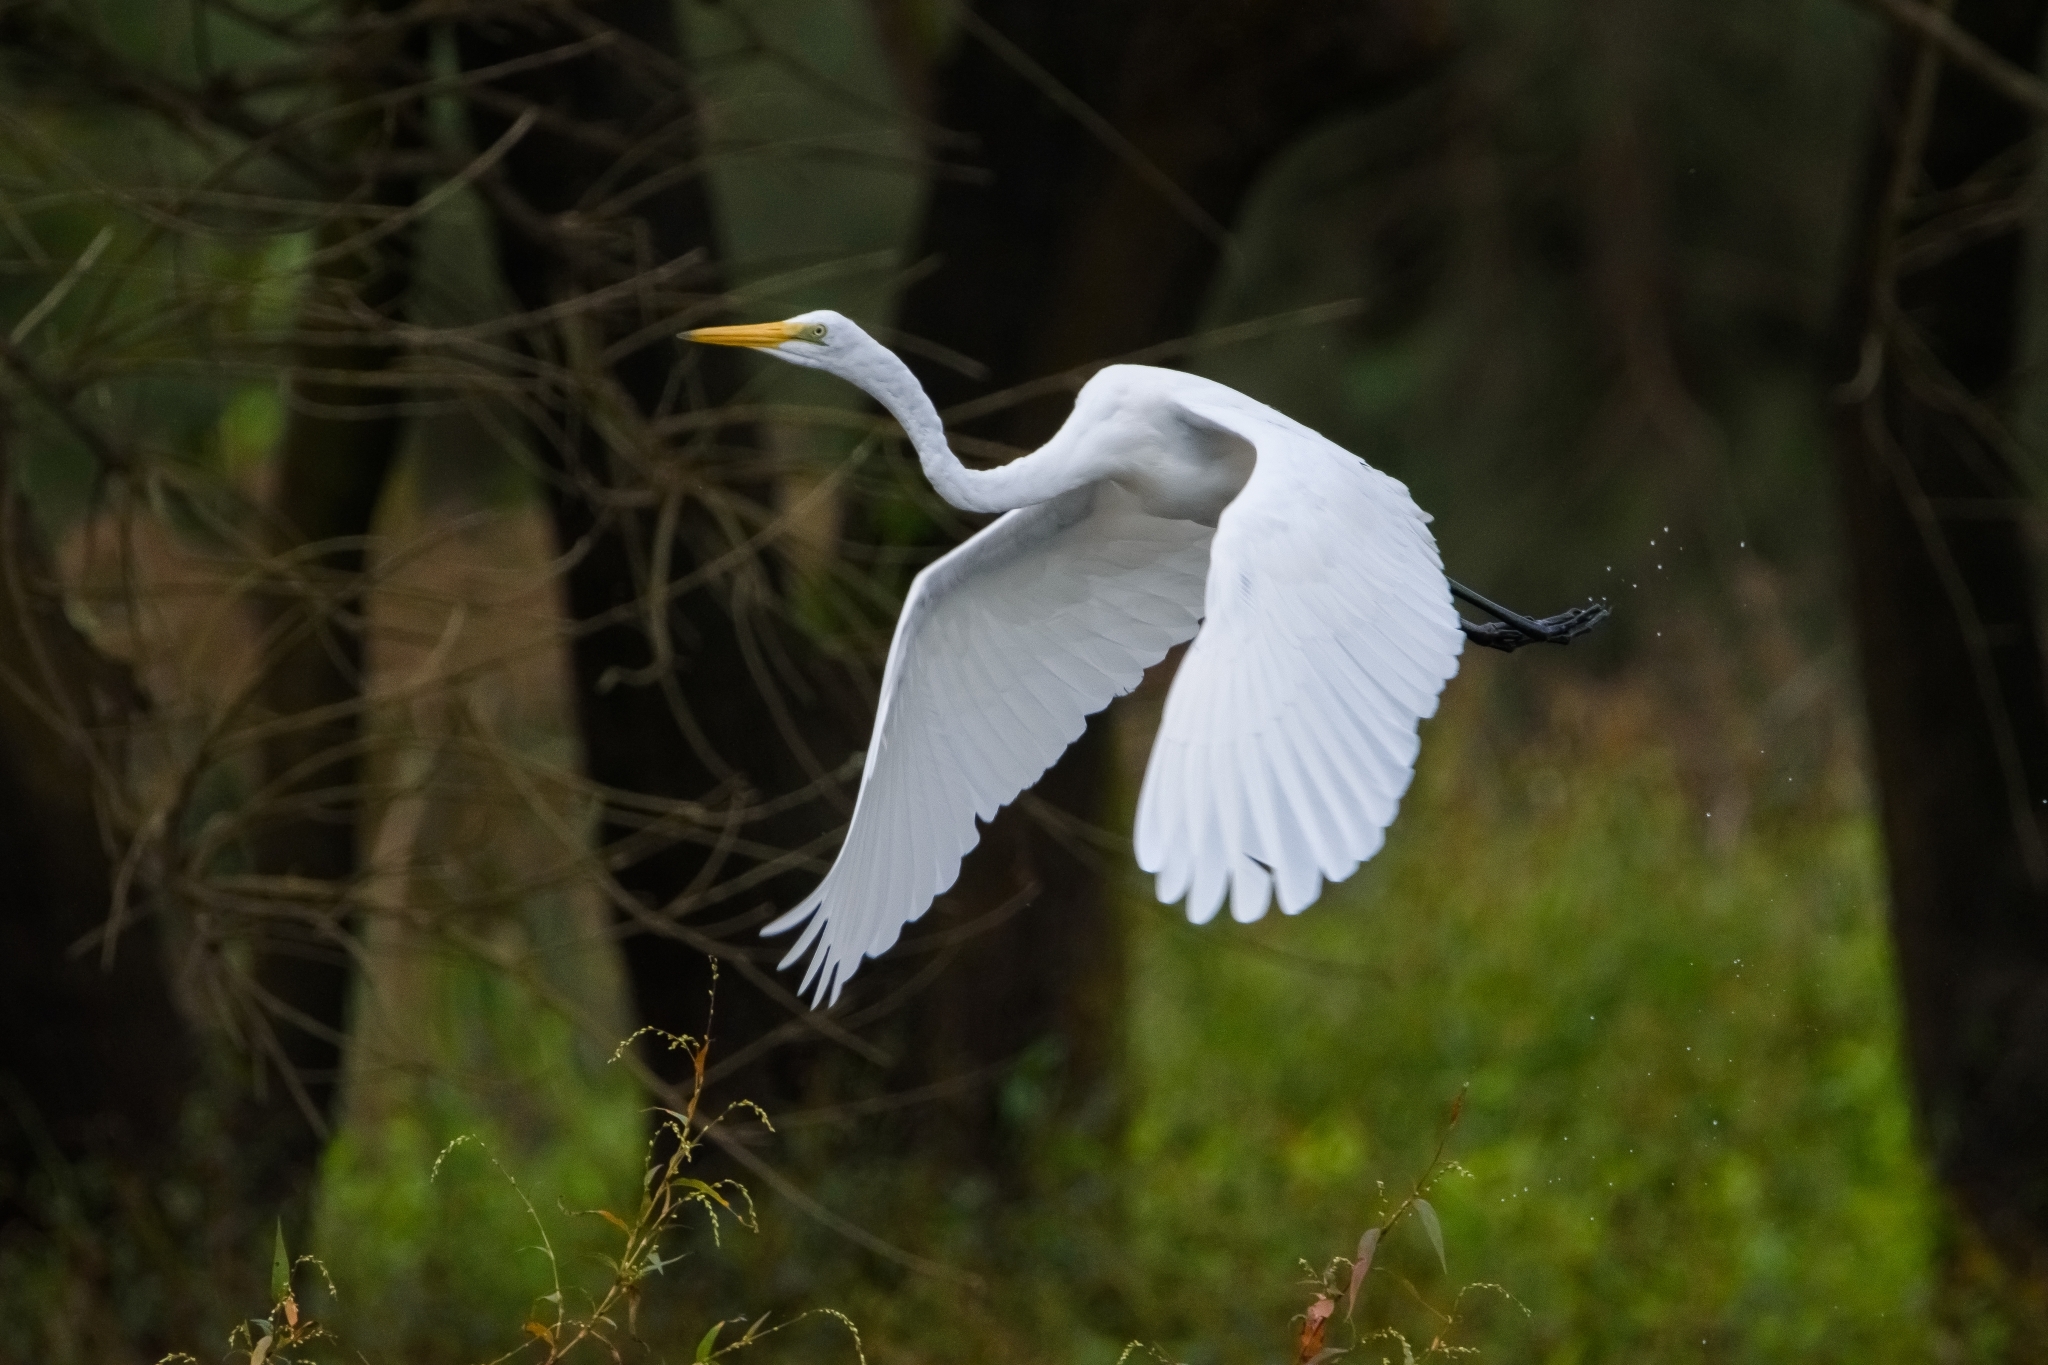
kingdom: Animalia
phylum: Chordata
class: Aves
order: Pelecaniformes
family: Ardeidae
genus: Ardea
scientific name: Ardea alba
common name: Great egret
